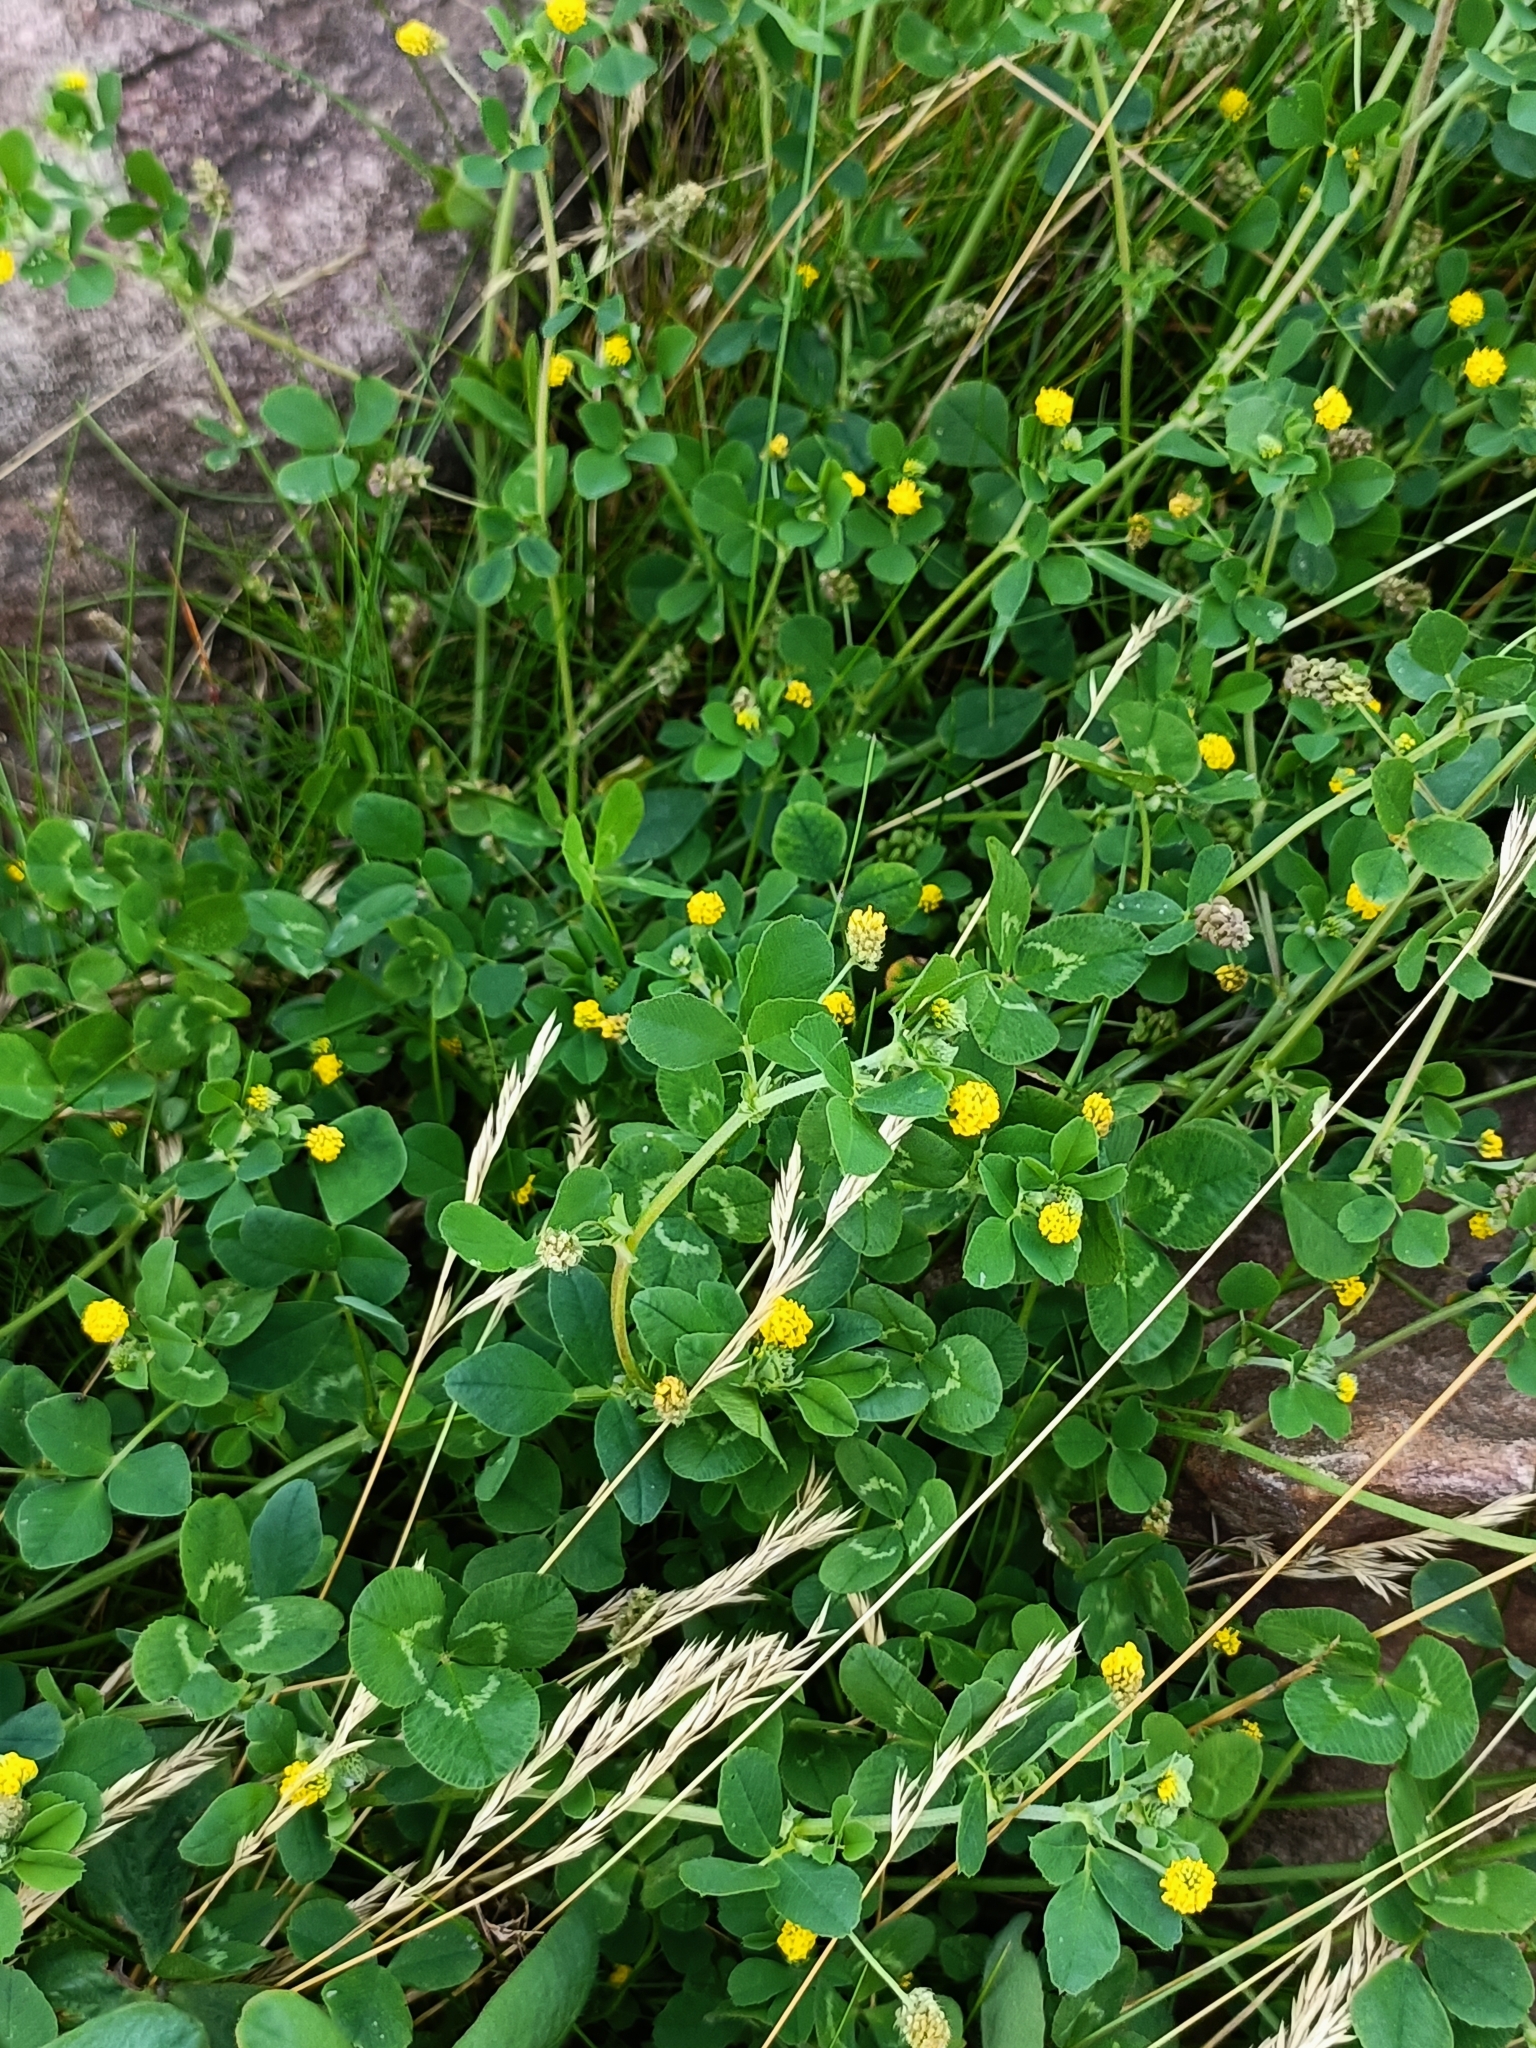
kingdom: Plantae
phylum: Tracheophyta
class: Magnoliopsida
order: Fabales
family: Fabaceae
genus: Medicago
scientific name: Medicago lupulina
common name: Black medick
